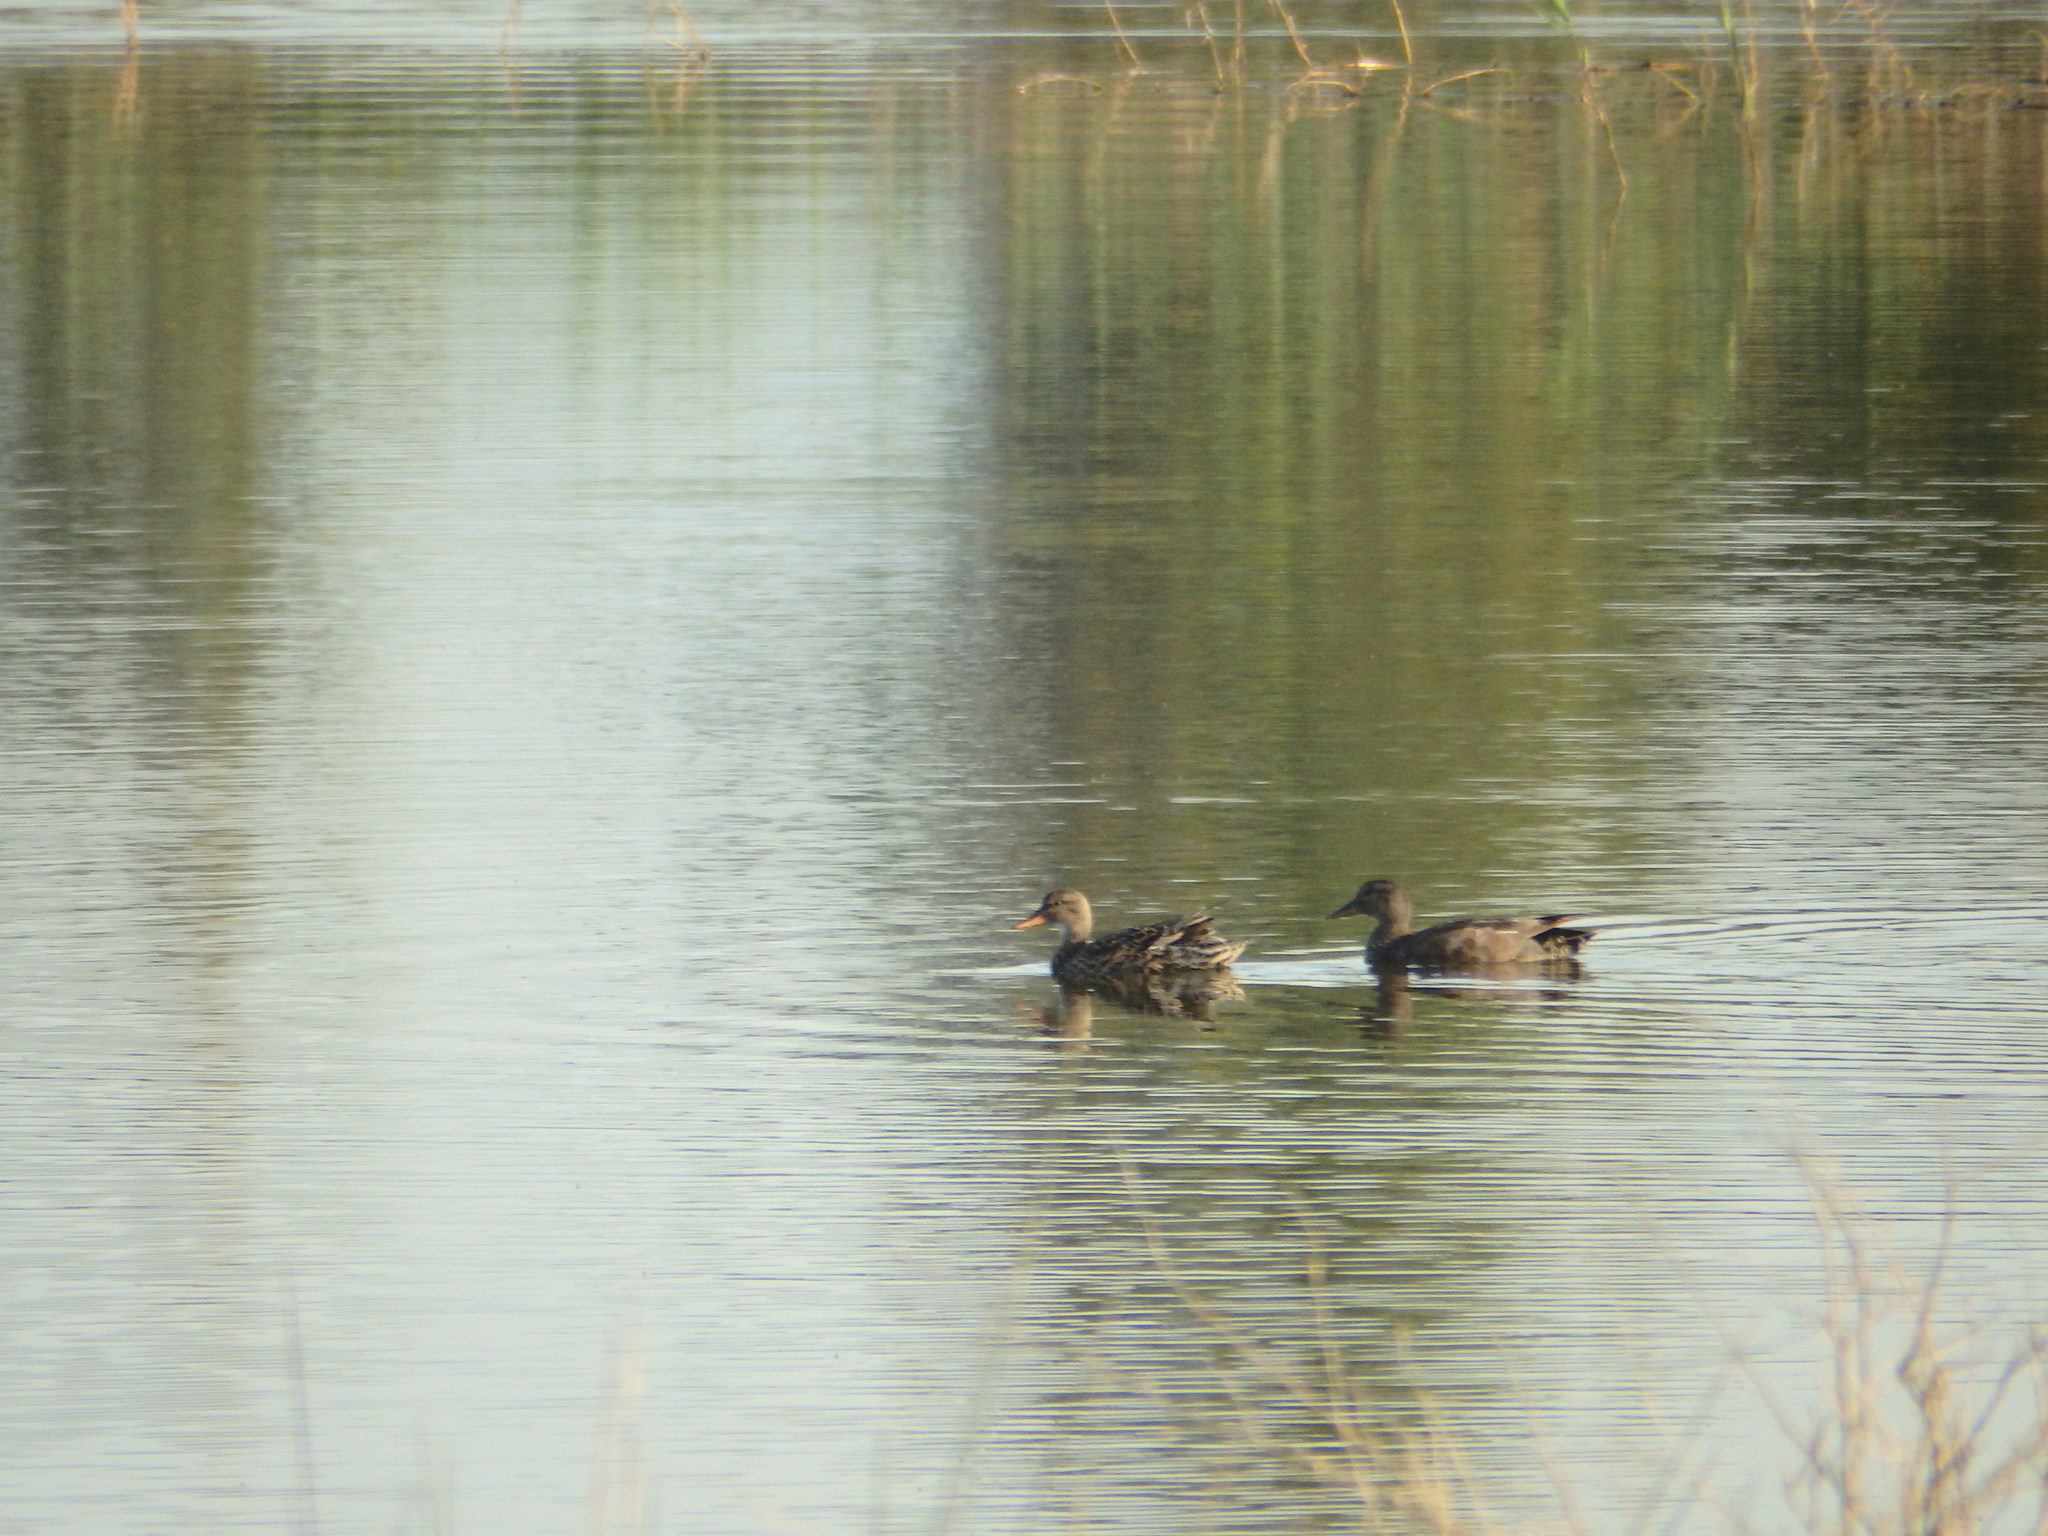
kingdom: Animalia
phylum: Chordata
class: Aves
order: Anseriformes
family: Anatidae
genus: Mareca
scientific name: Mareca strepera
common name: Gadwall
